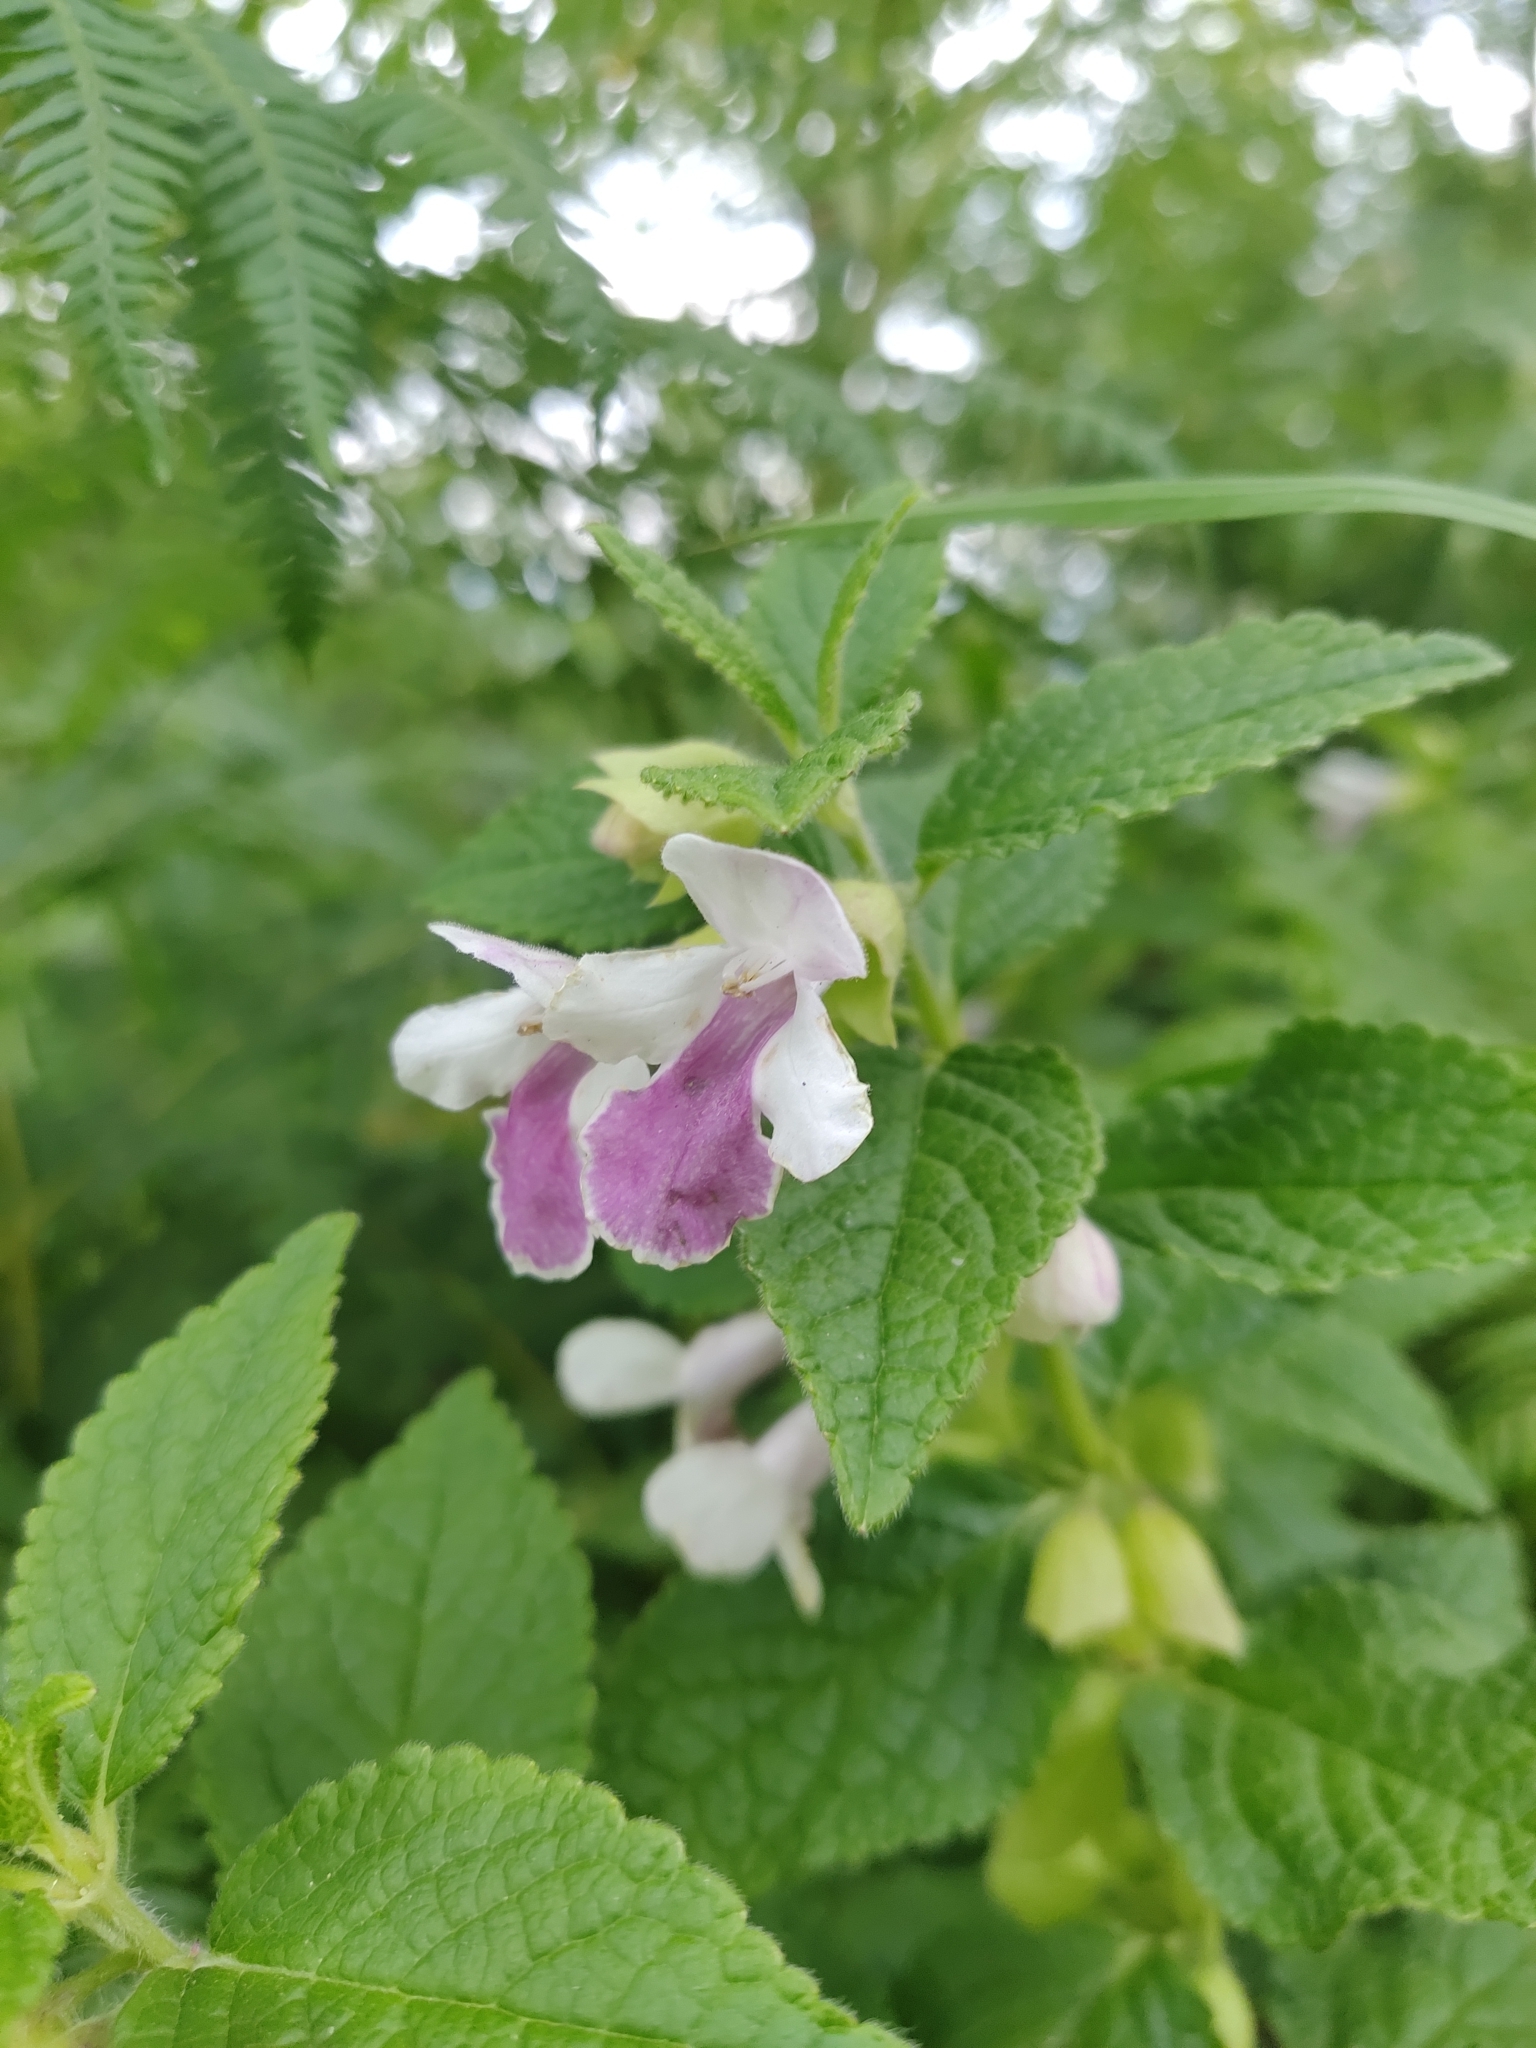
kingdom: Plantae
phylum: Tracheophyta
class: Magnoliopsida
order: Lamiales
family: Lamiaceae
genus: Melittis
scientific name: Melittis melissophyllum
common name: Bastard balm
